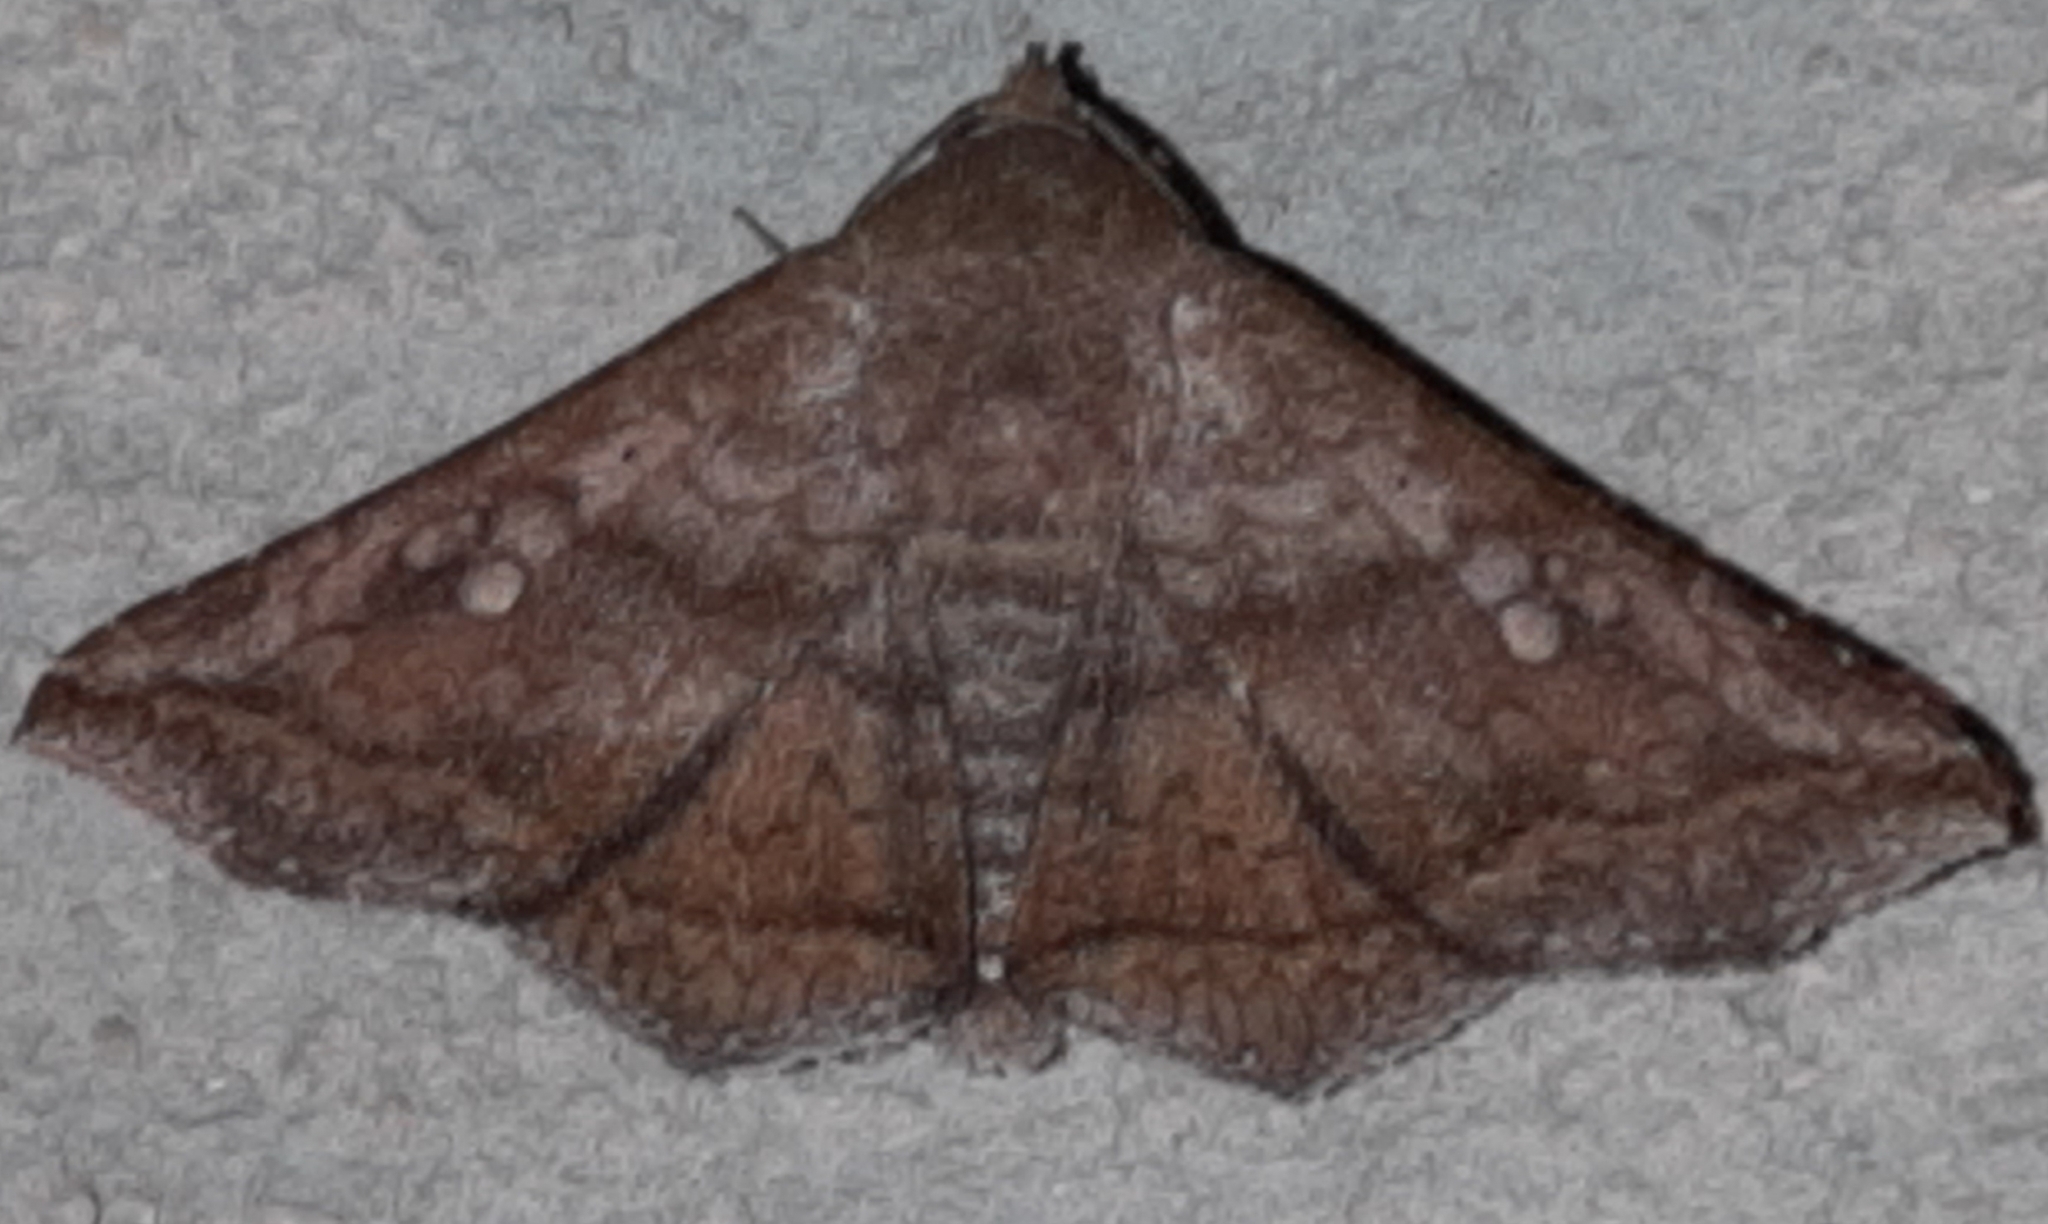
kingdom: Animalia
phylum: Arthropoda
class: Insecta
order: Lepidoptera
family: Erebidae
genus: Lesmone
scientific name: Lesmone hinna
